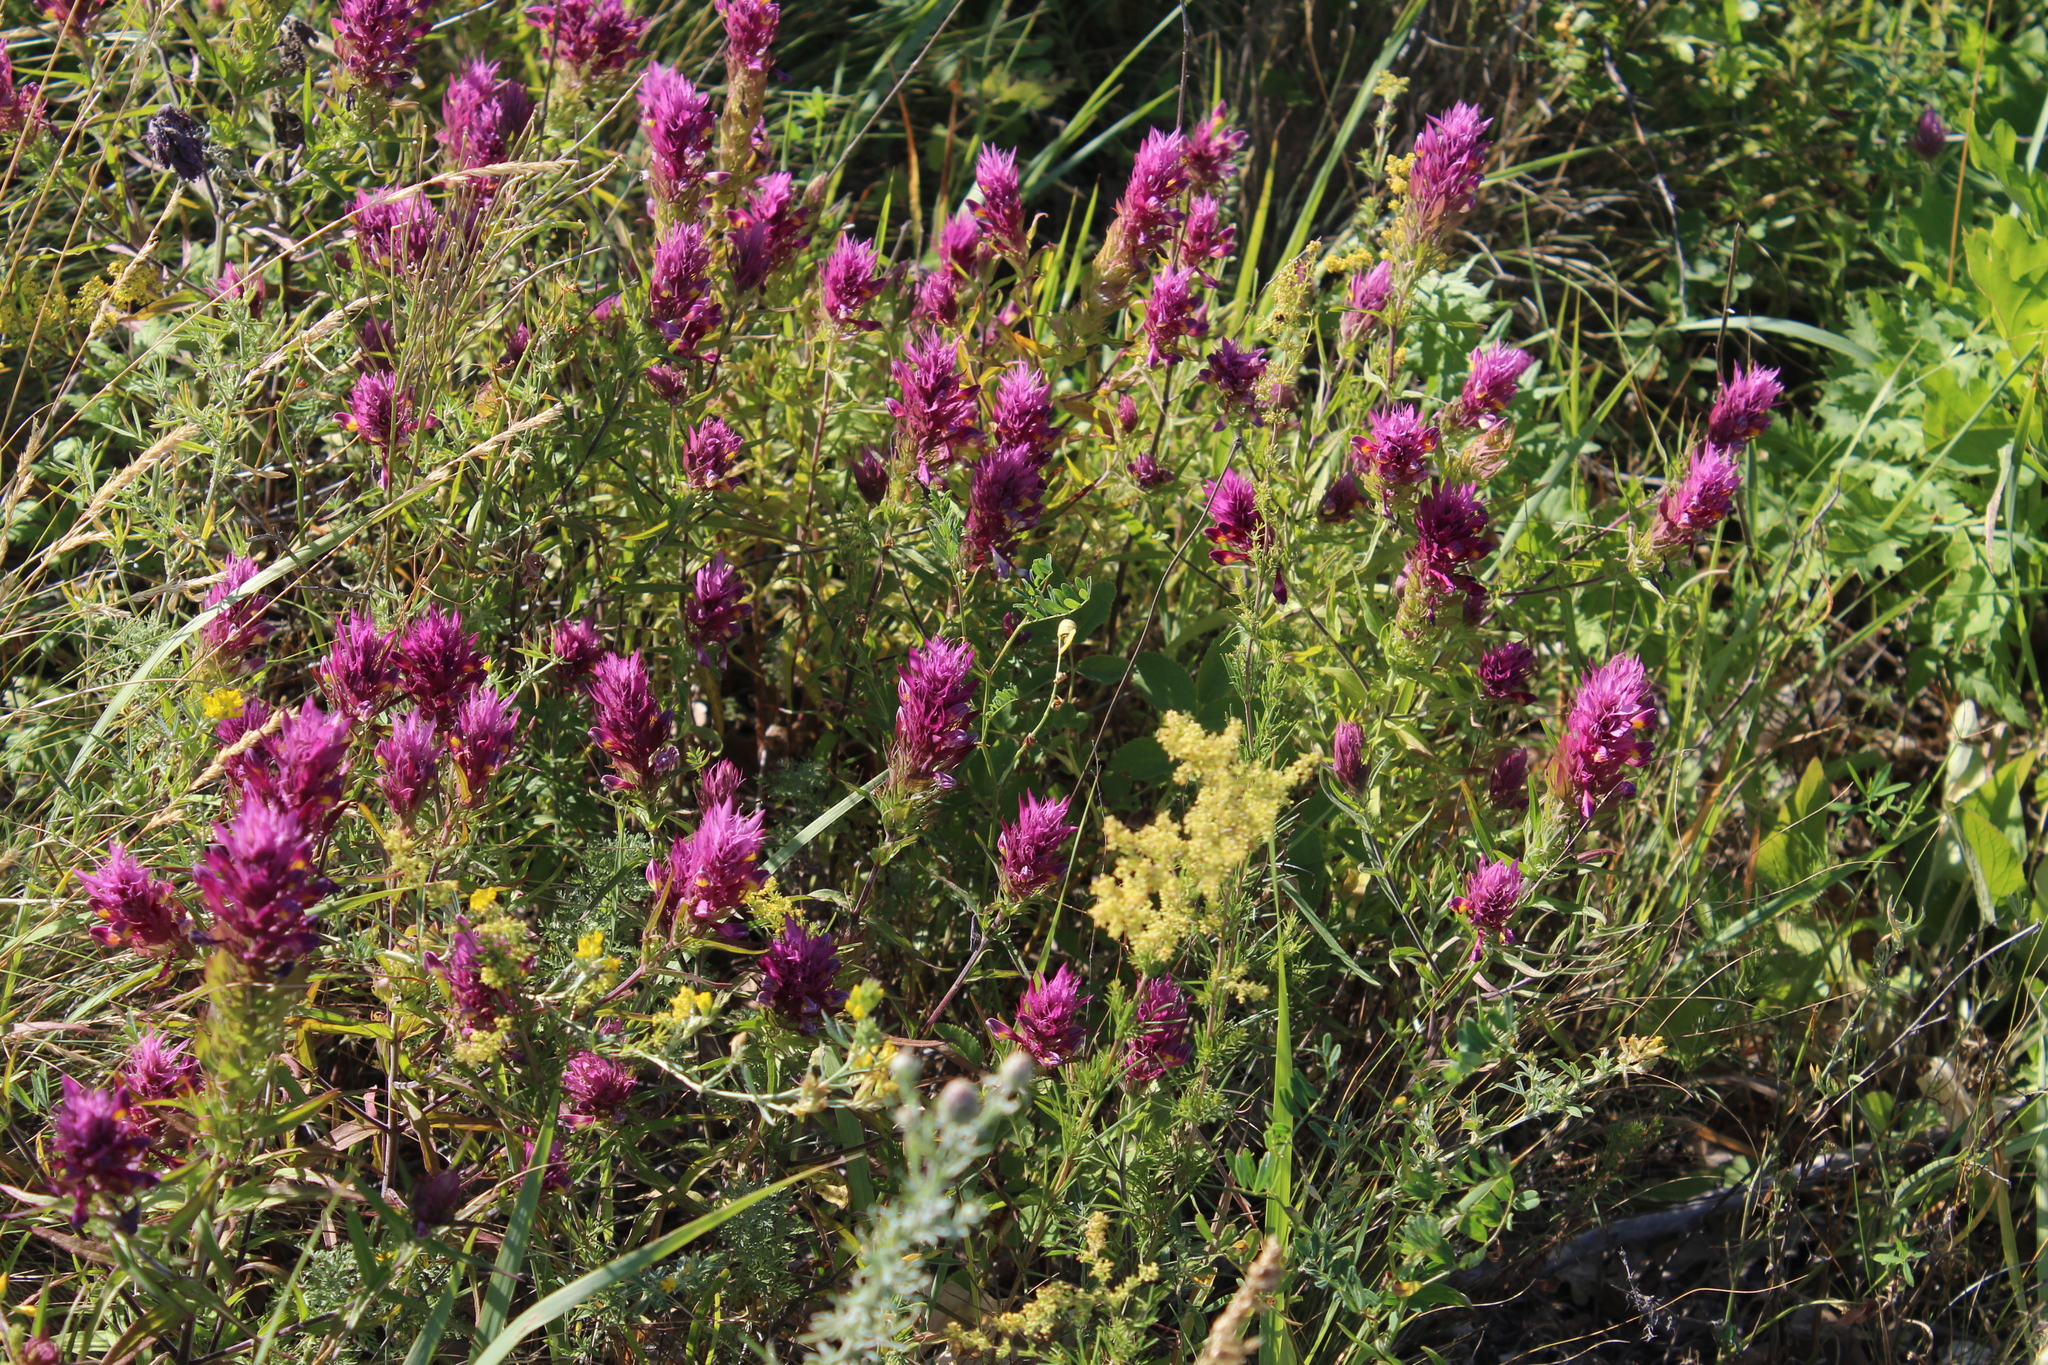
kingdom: Plantae
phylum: Tracheophyta
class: Magnoliopsida
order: Lamiales
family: Orobanchaceae
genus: Melampyrum
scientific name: Melampyrum arvense
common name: Field cow-wheat
